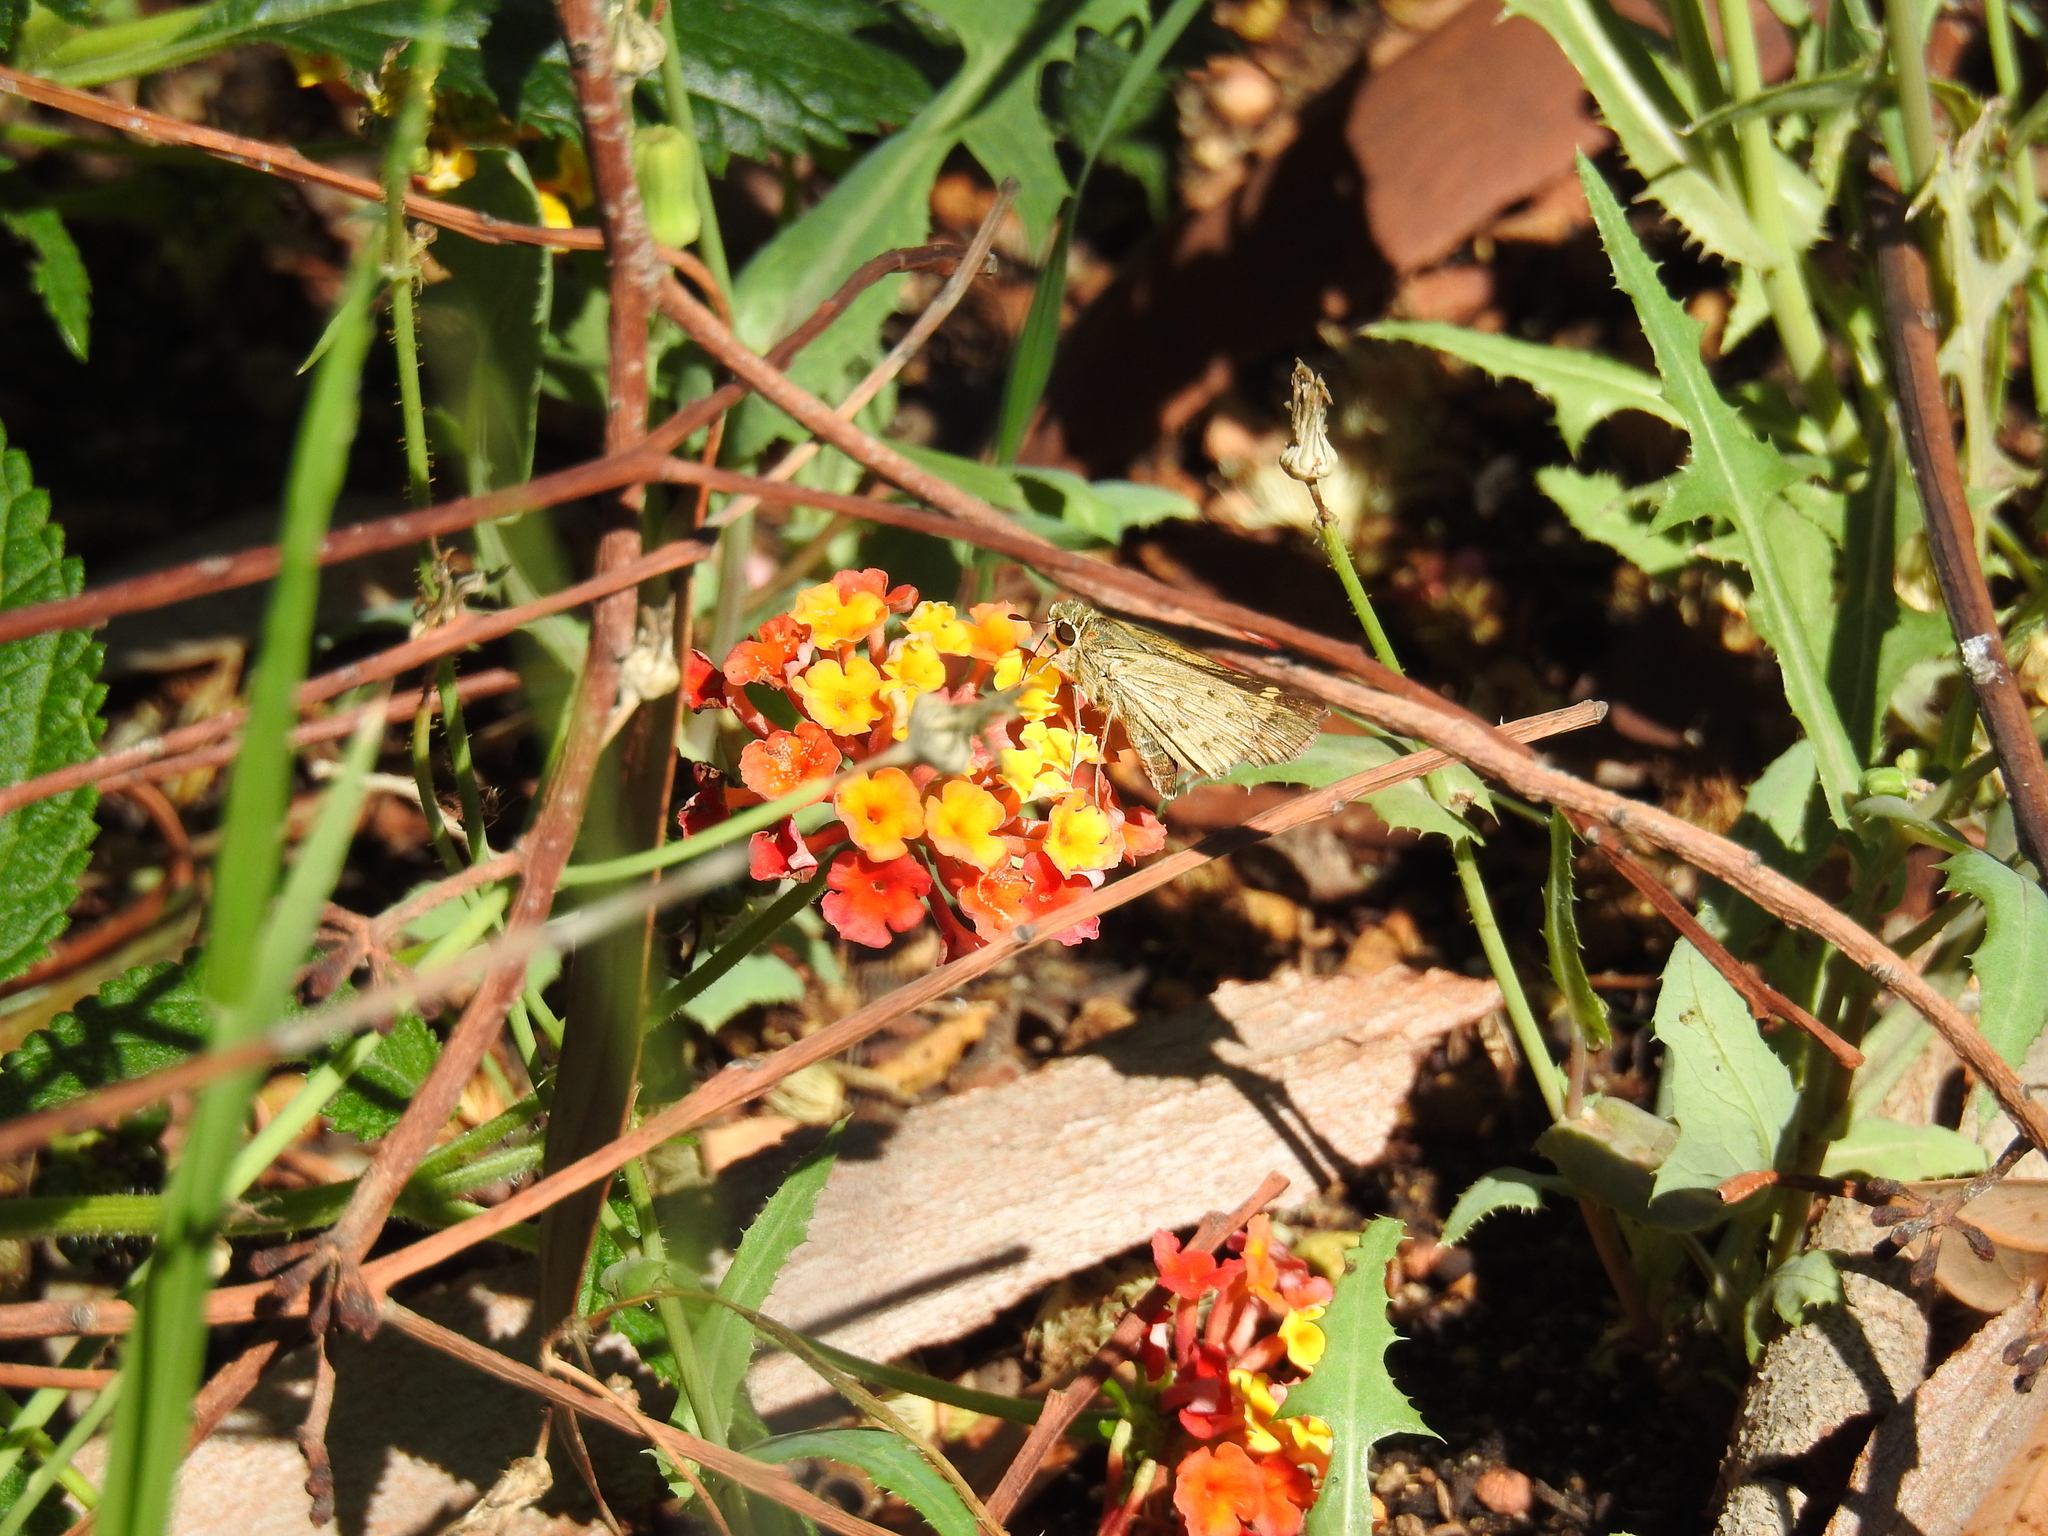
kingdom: Animalia
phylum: Arthropoda
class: Insecta
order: Lepidoptera
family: Hesperiidae
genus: Hylephila
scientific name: Hylephila phyleus
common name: Fiery skipper
